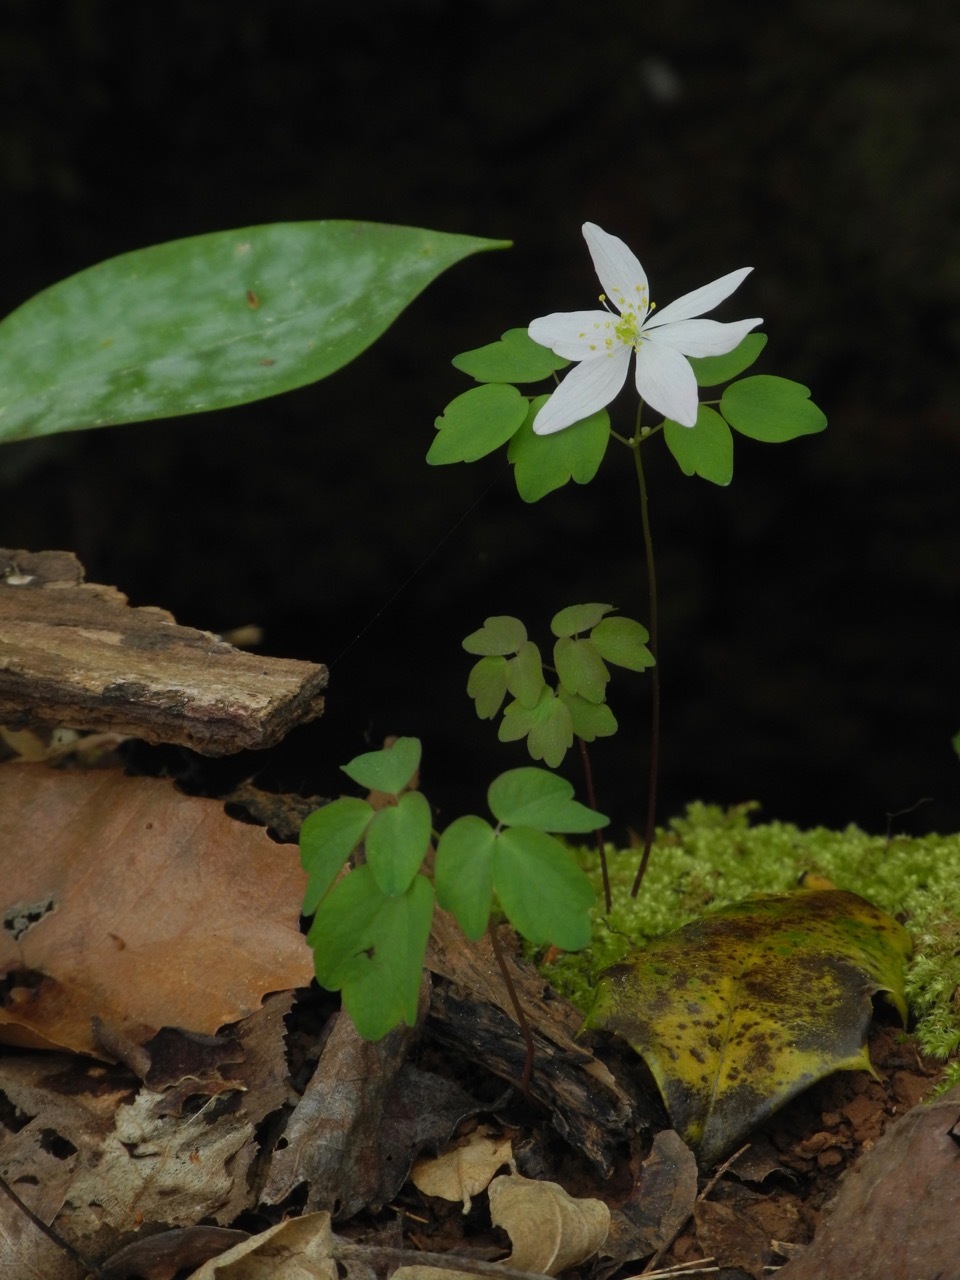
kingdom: Plantae
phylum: Tracheophyta
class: Magnoliopsida
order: Ranunculales
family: Ranunculaceae
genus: Thalictrum
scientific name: Thalictrum thalictroides
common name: Rue-anemone
